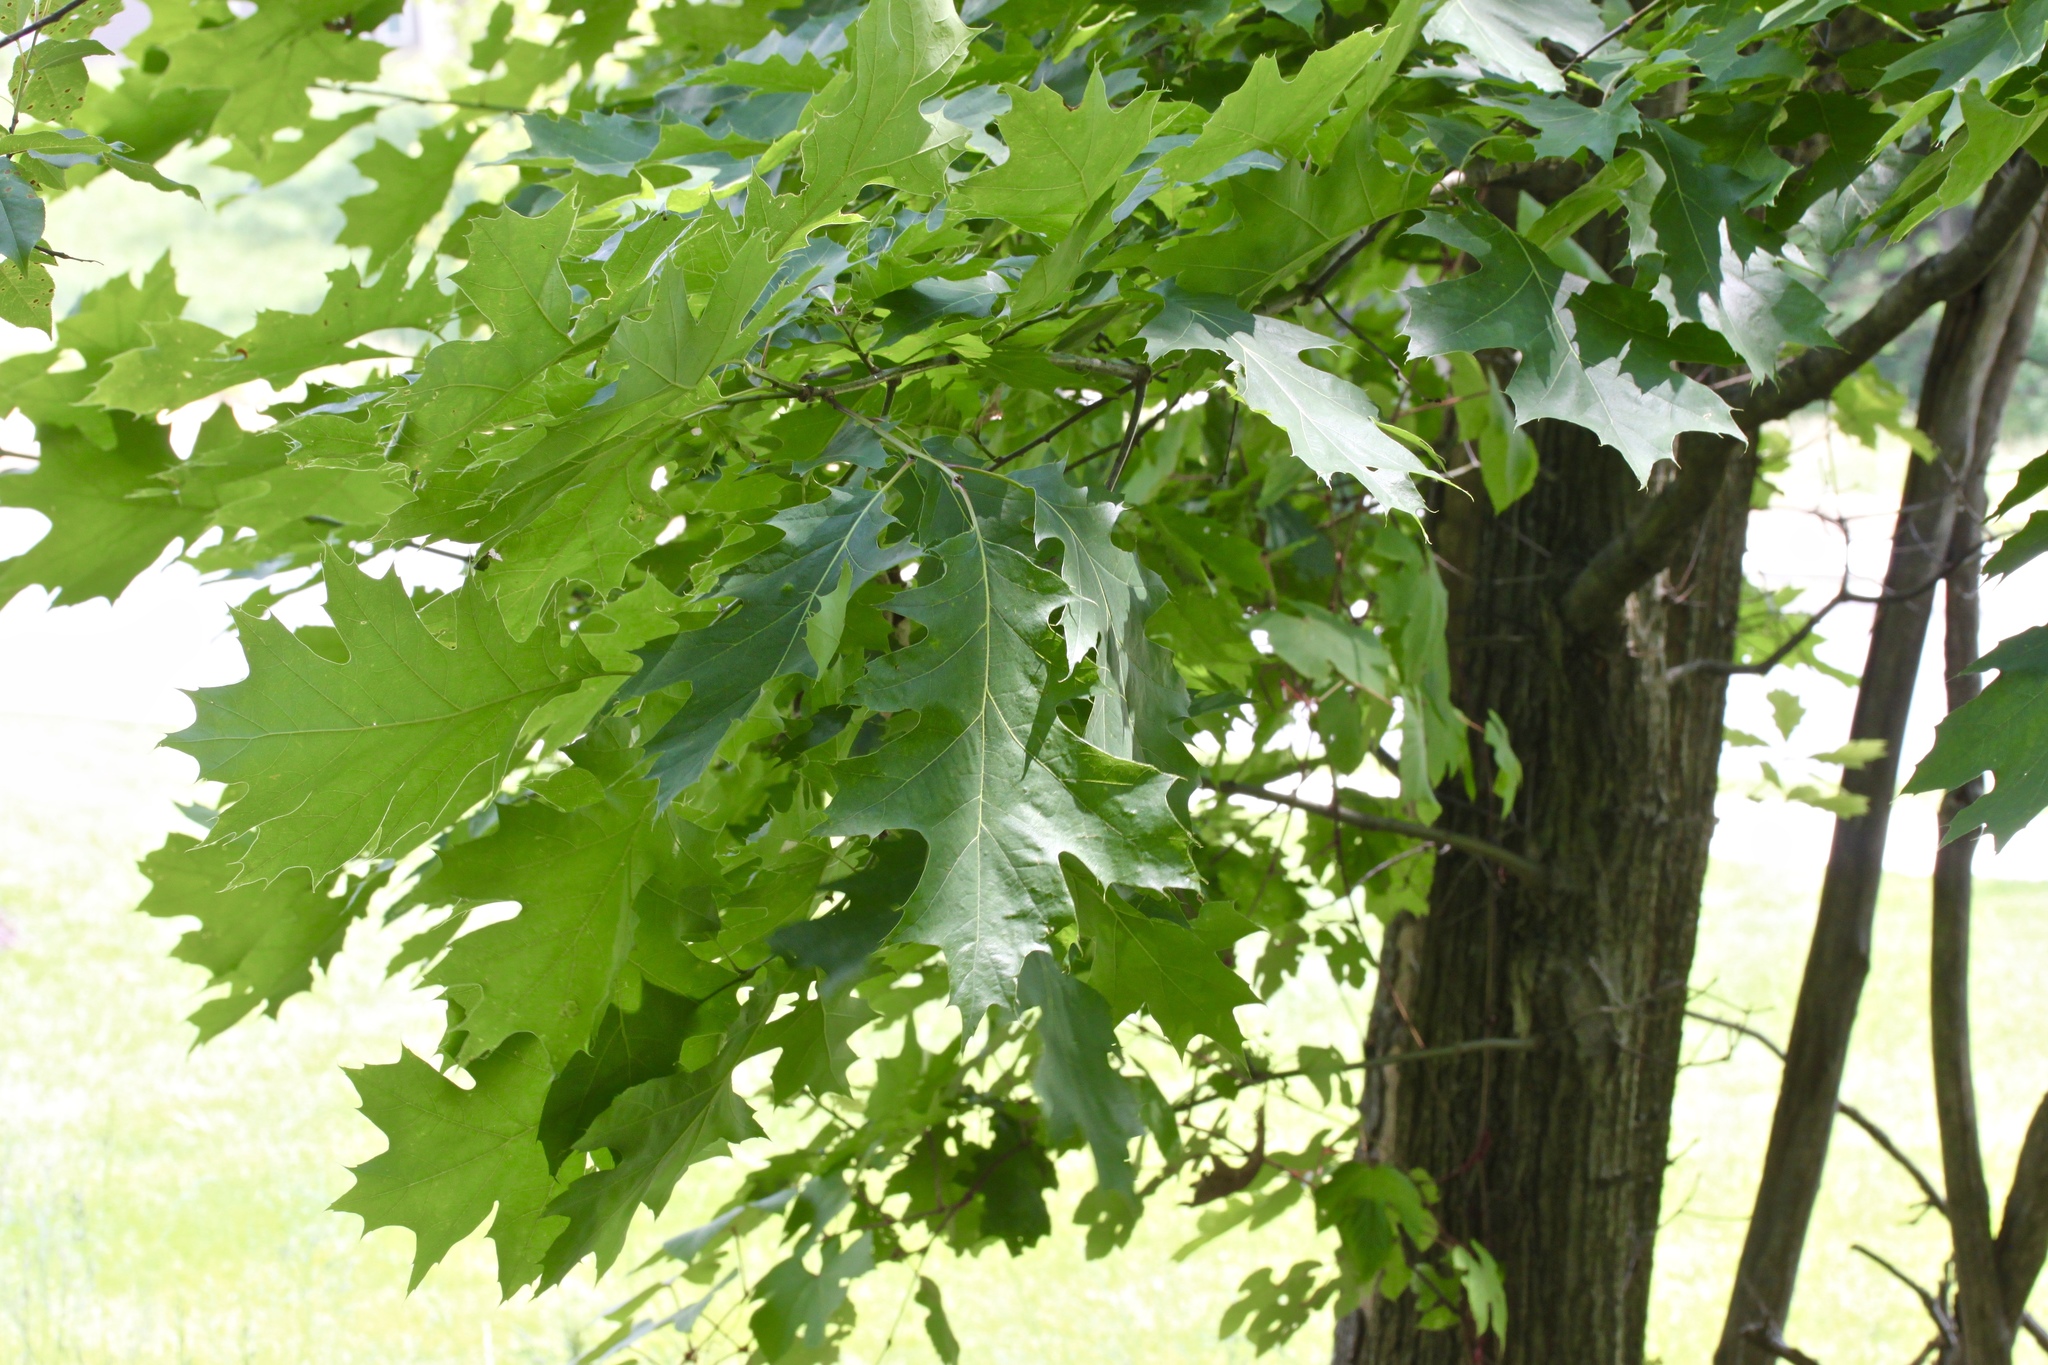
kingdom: Plantae
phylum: Tracheophyta
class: Magnoliopsida
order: Fagales
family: Fagaceae
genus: Quercus
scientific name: Quercus rubra
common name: Red oak
